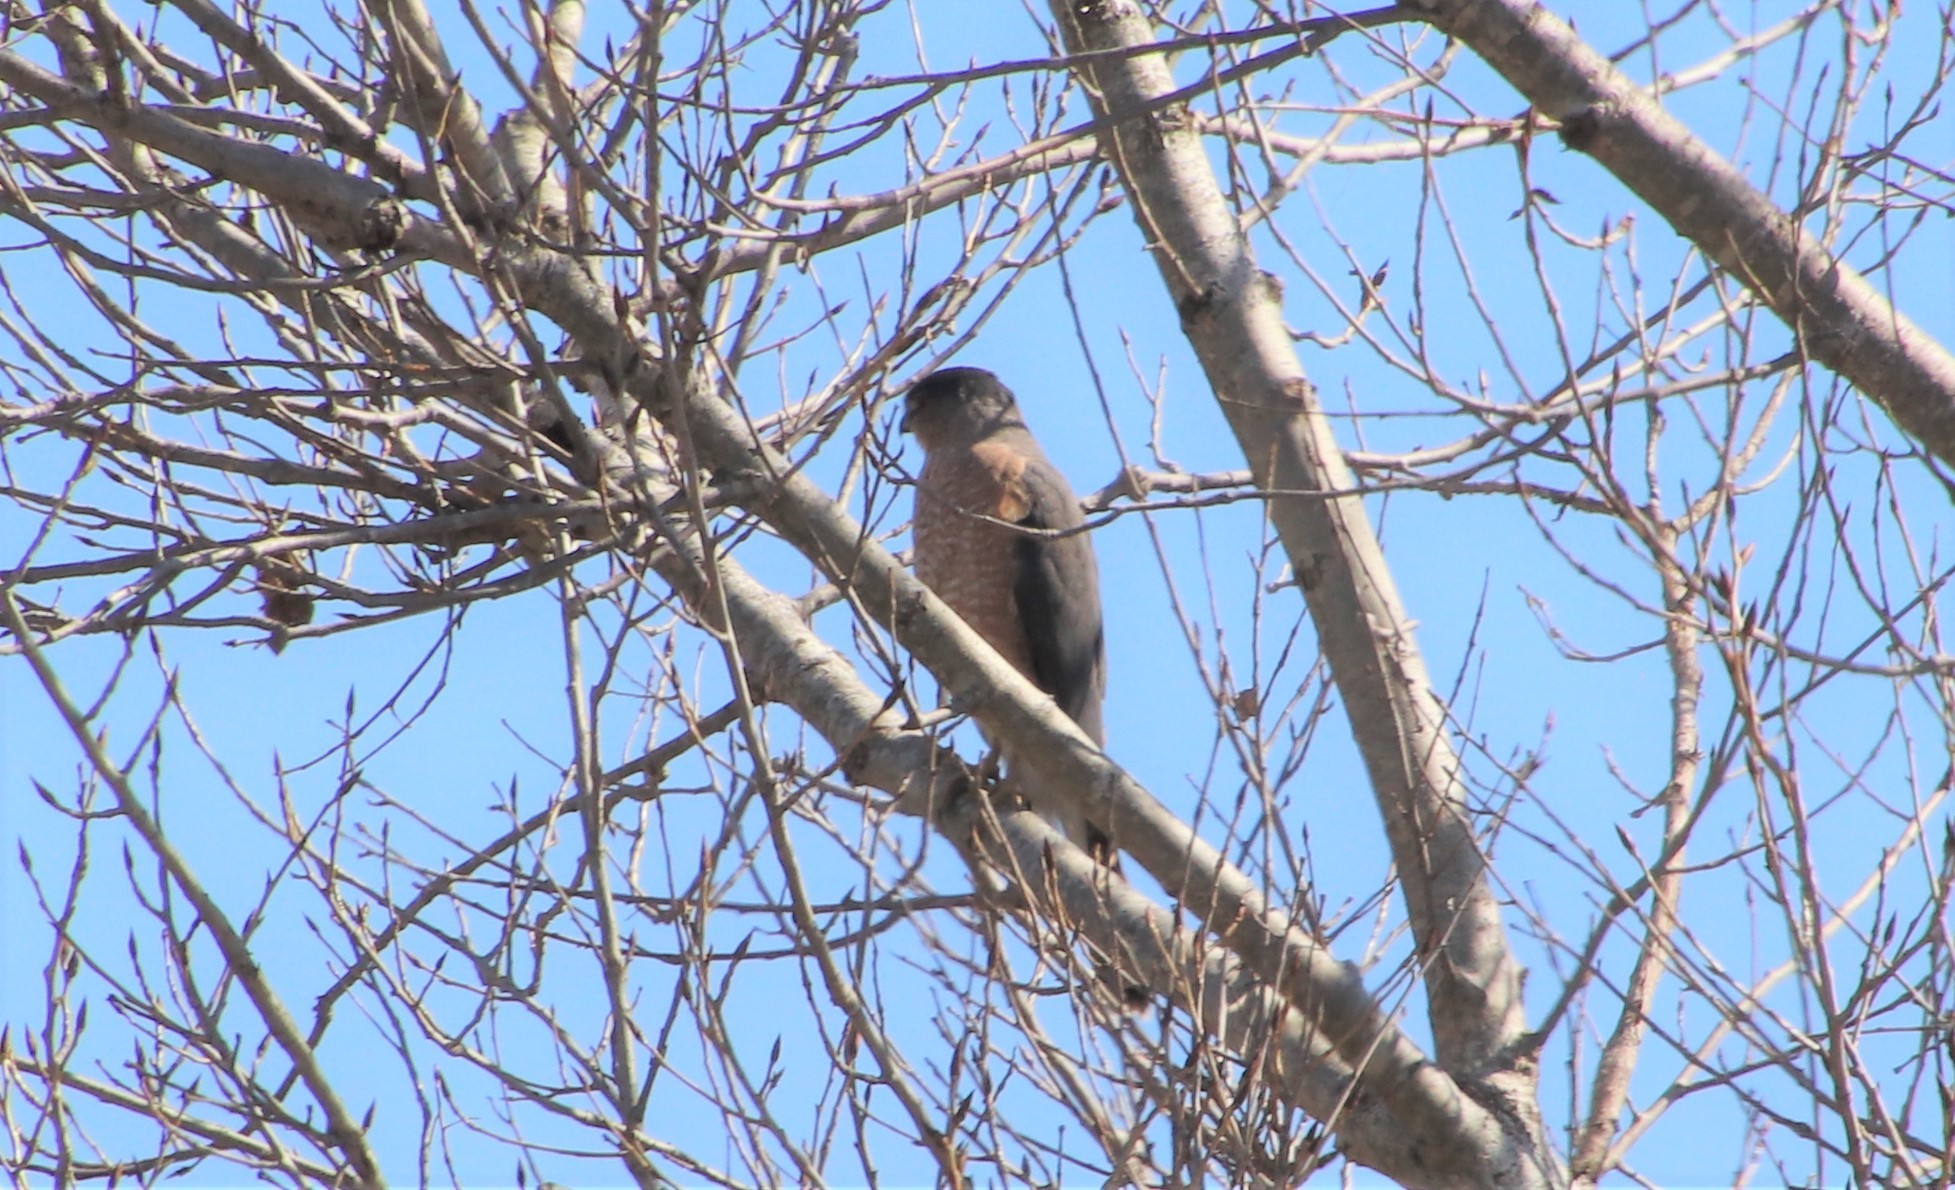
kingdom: Animalia
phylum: Chordata
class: Aves
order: Accipitriformes
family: Accipitridae
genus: Accipiter
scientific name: Accipiter cooperii
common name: Cooper's hawk
